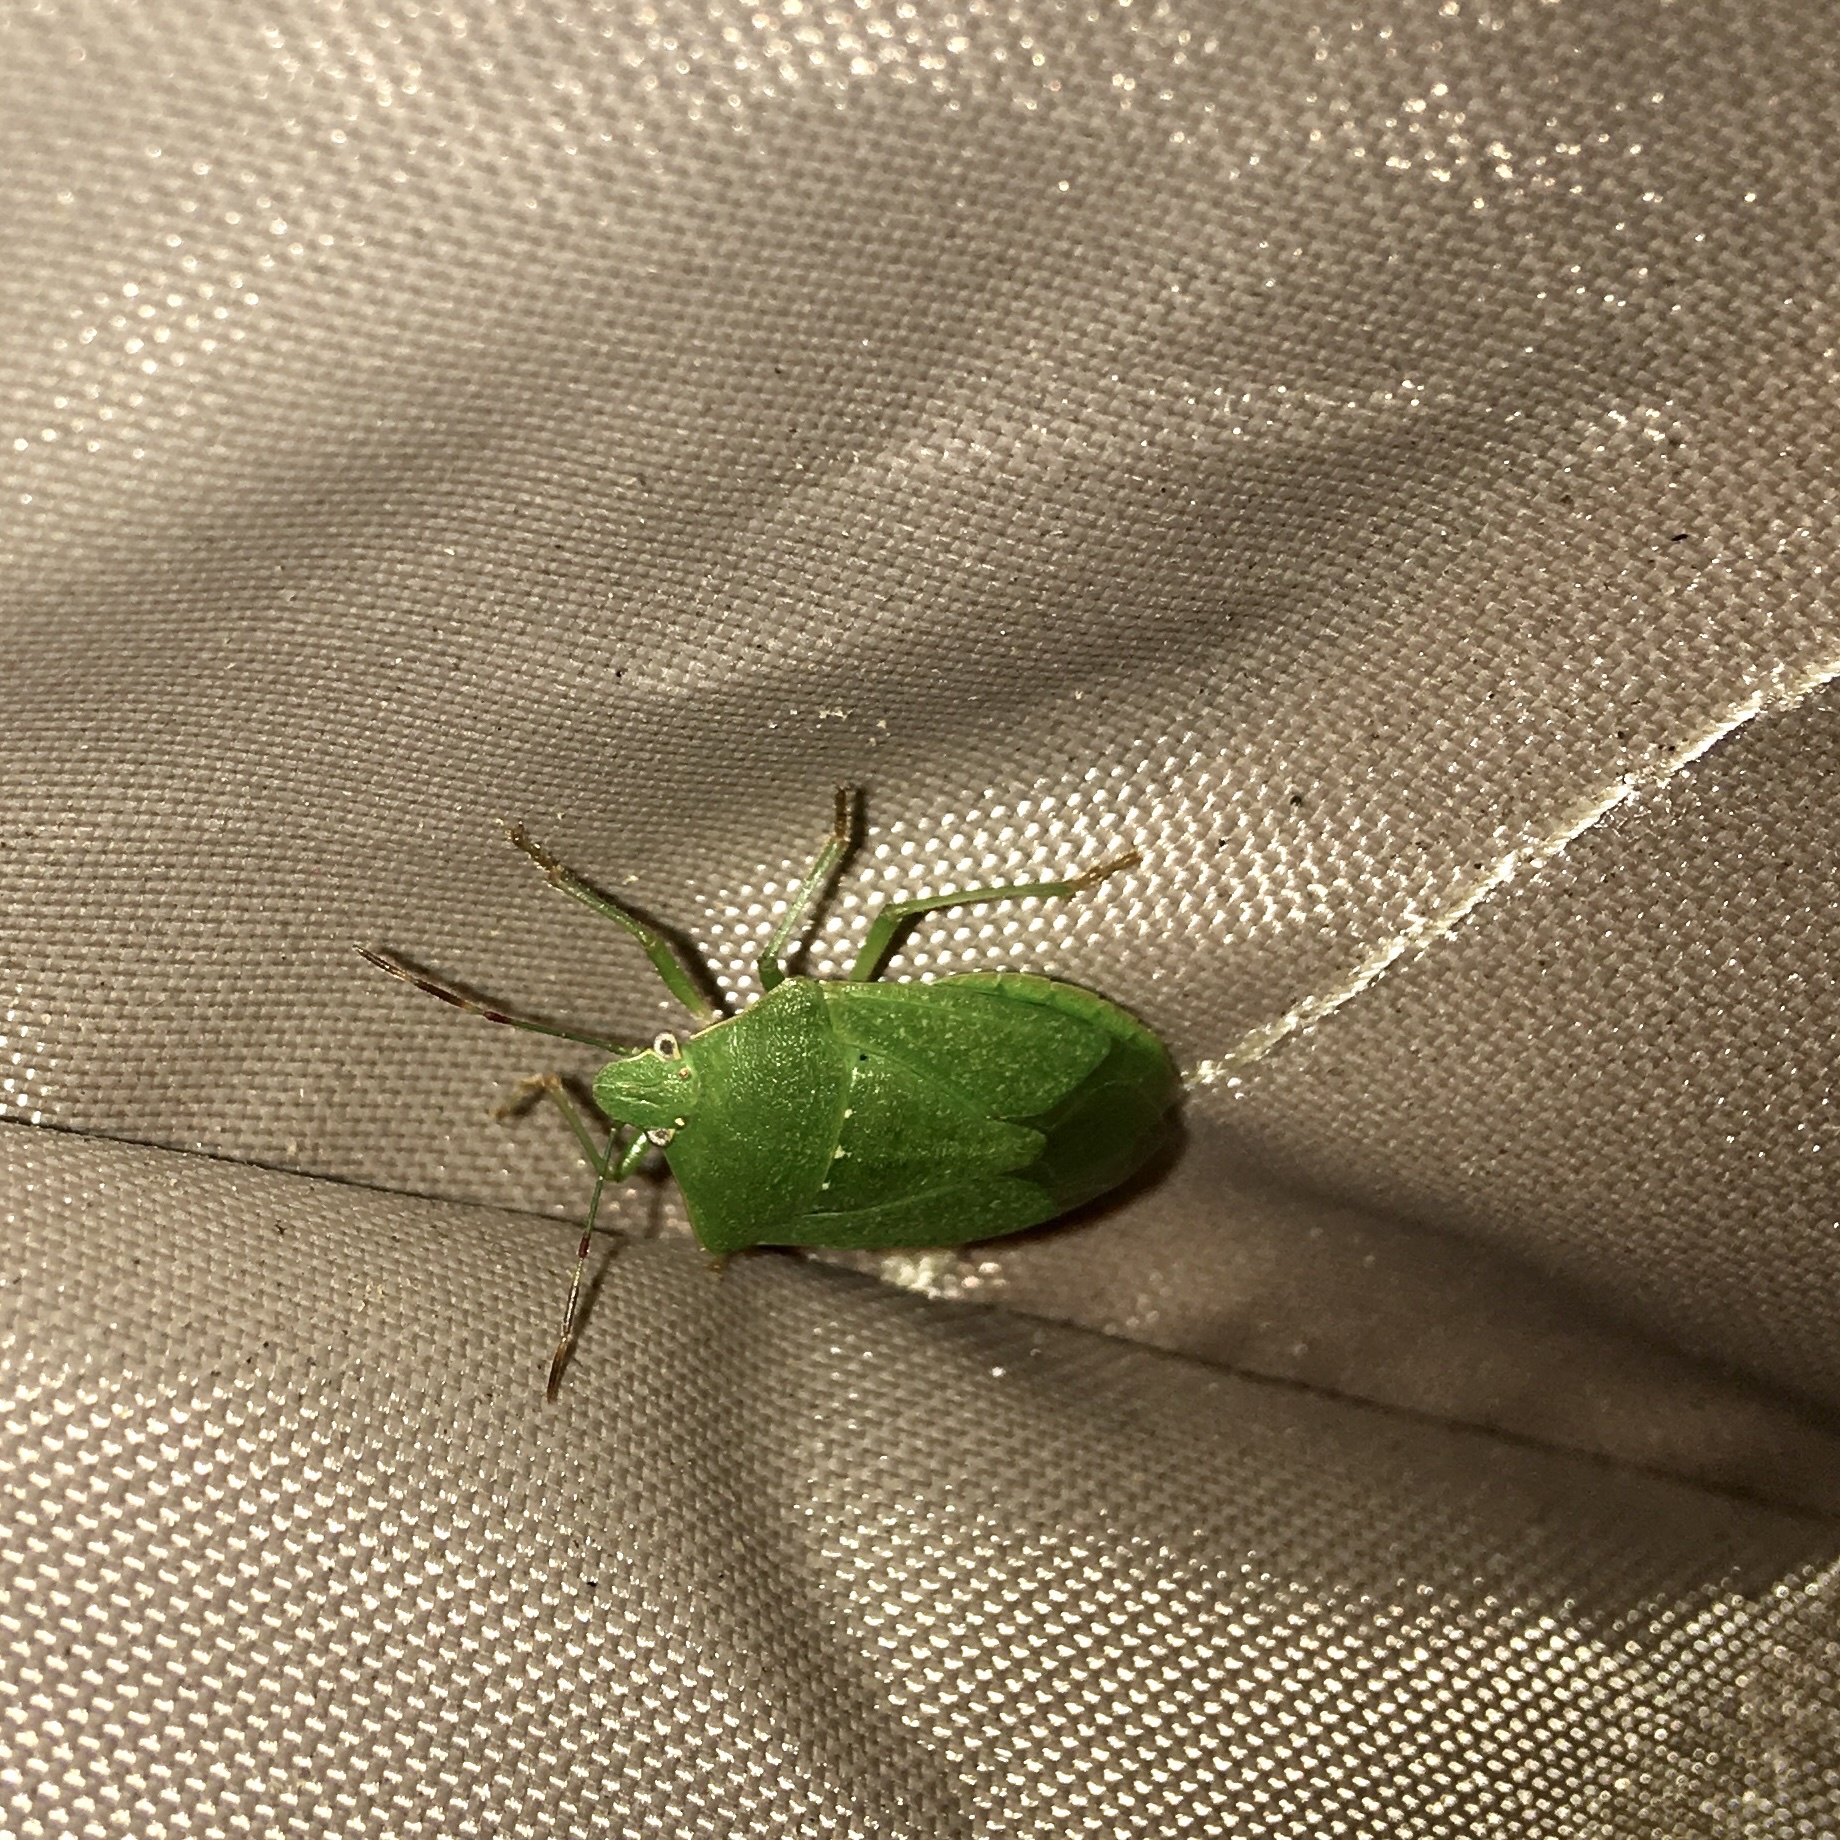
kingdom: Animalia
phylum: Arthropoda
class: Insecta
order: Hemiptera
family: Pentatomidae
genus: Nezara
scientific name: Nezara viridula
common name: Southern green stink bug
